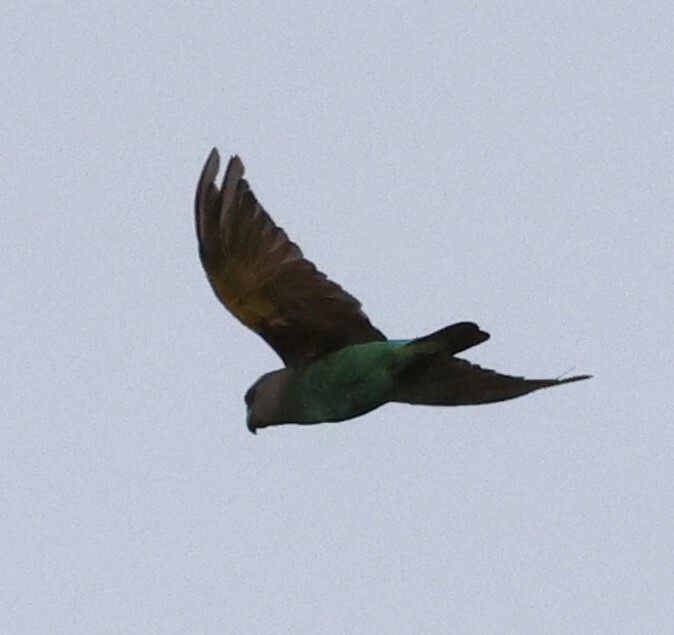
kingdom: Animalia
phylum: Chordata
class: Aves
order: Psittaciformes
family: Psittacidae
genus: Poicephalus
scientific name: Poicephalus meyeri
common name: Meyer's parrot
